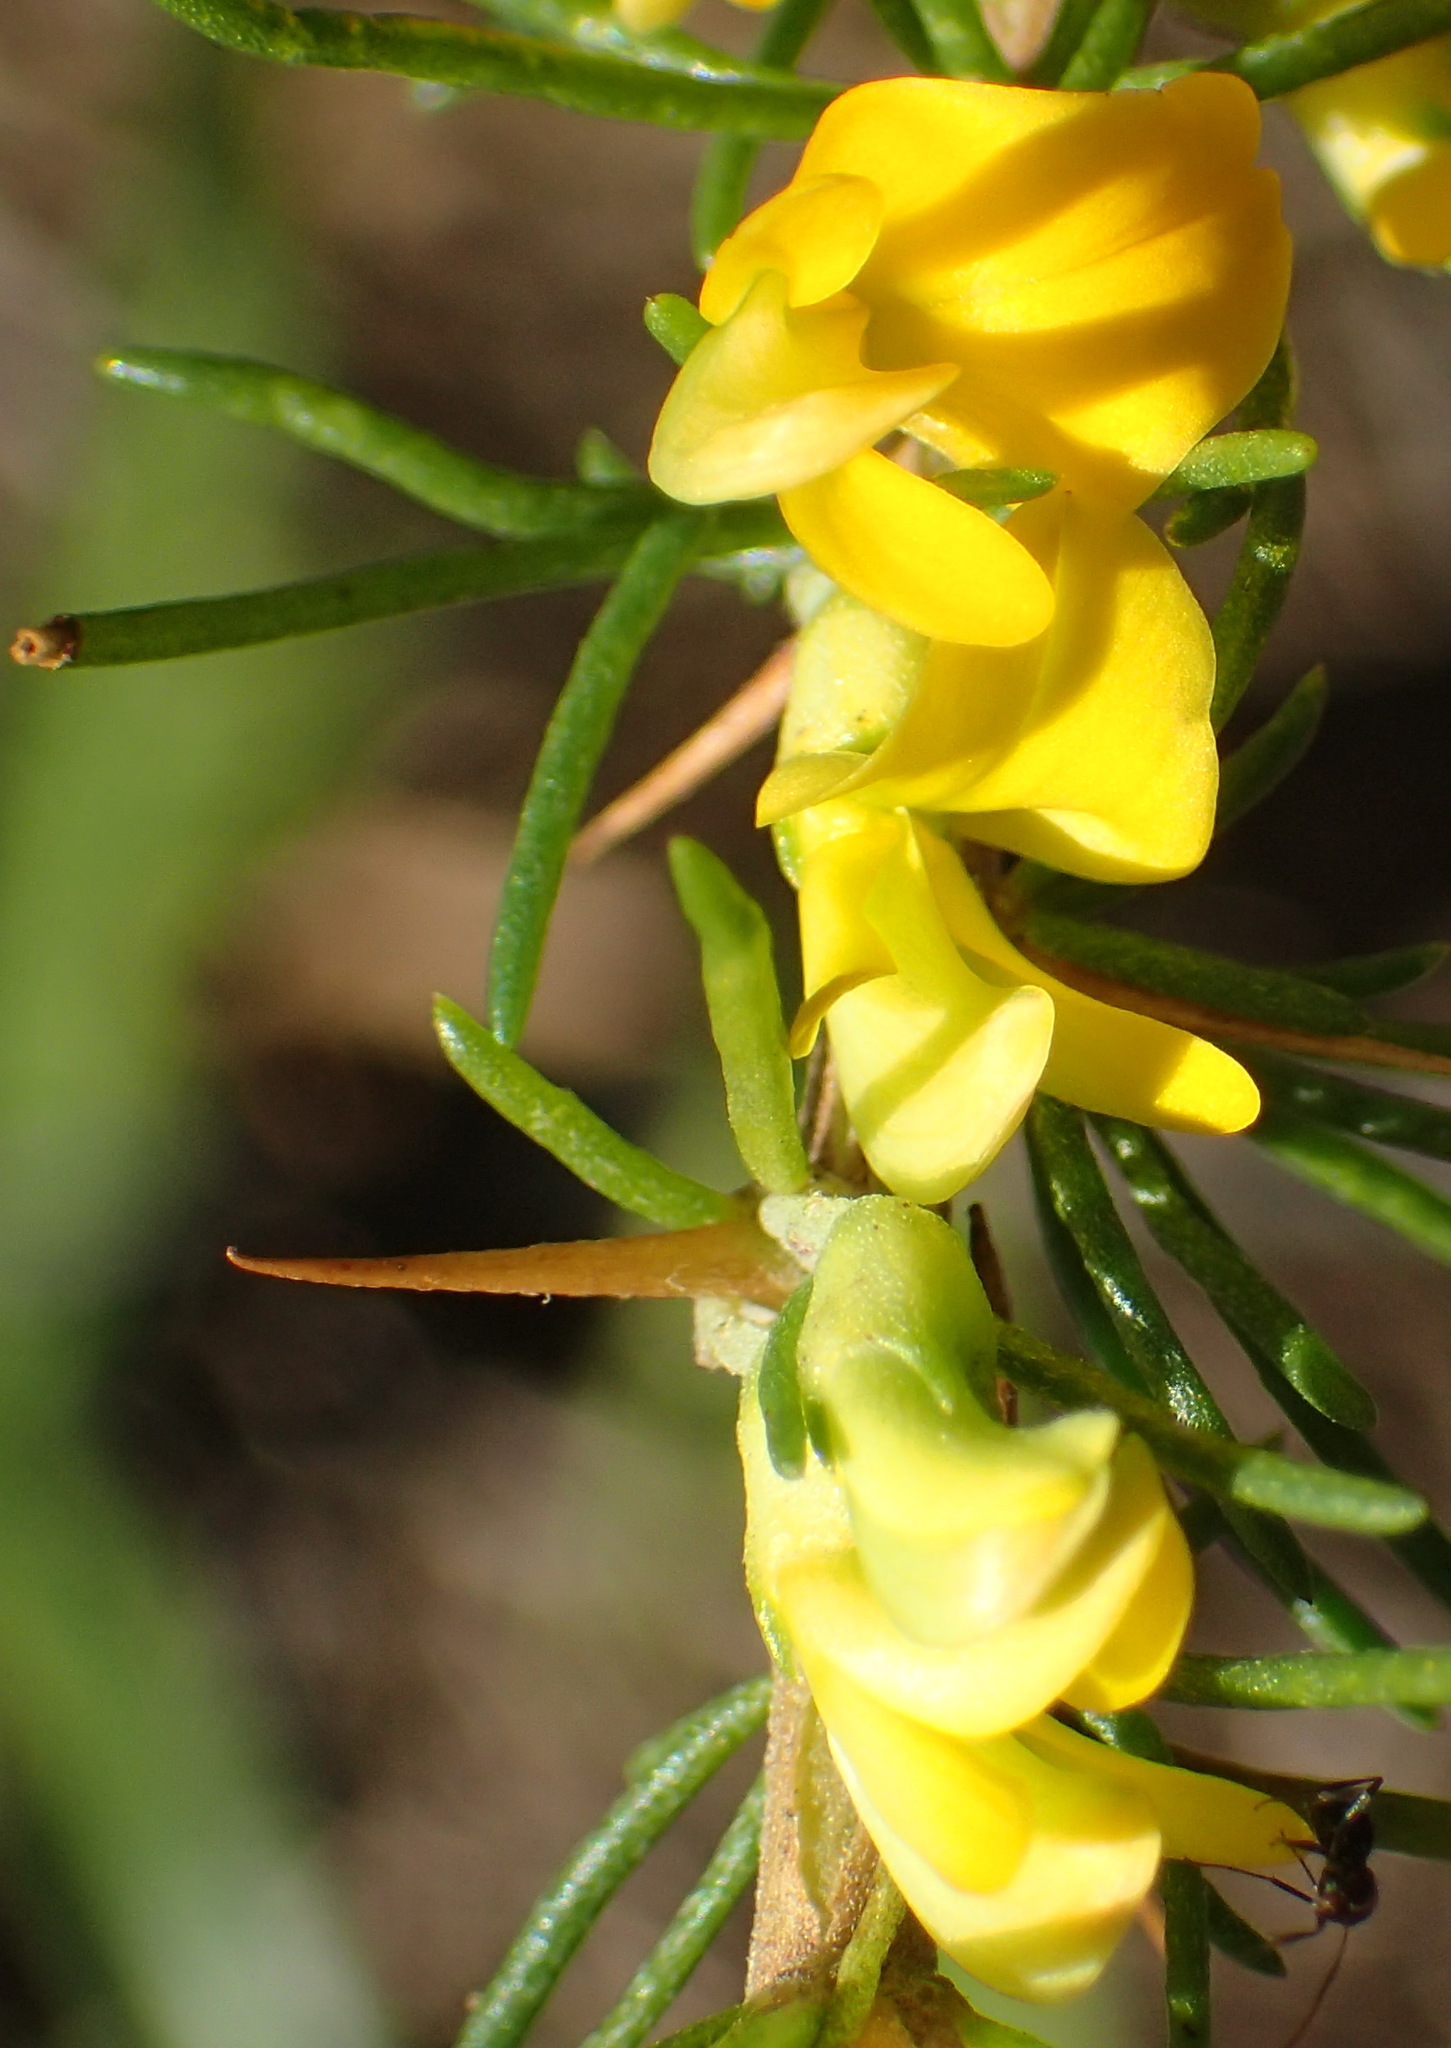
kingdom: Plantae
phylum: Tracheophyta
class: Magnoliopsida
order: Fabales
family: Fabaceae
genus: Aspalathus
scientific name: Aspalathus spinosa
